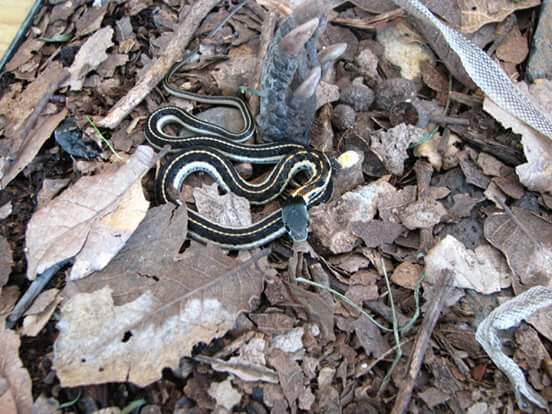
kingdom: Animalia
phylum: Chordata
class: Squamata
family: Colubridae
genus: Thamnophis
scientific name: Thamnophis cyrtopsis
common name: Black-necked gartersnake
